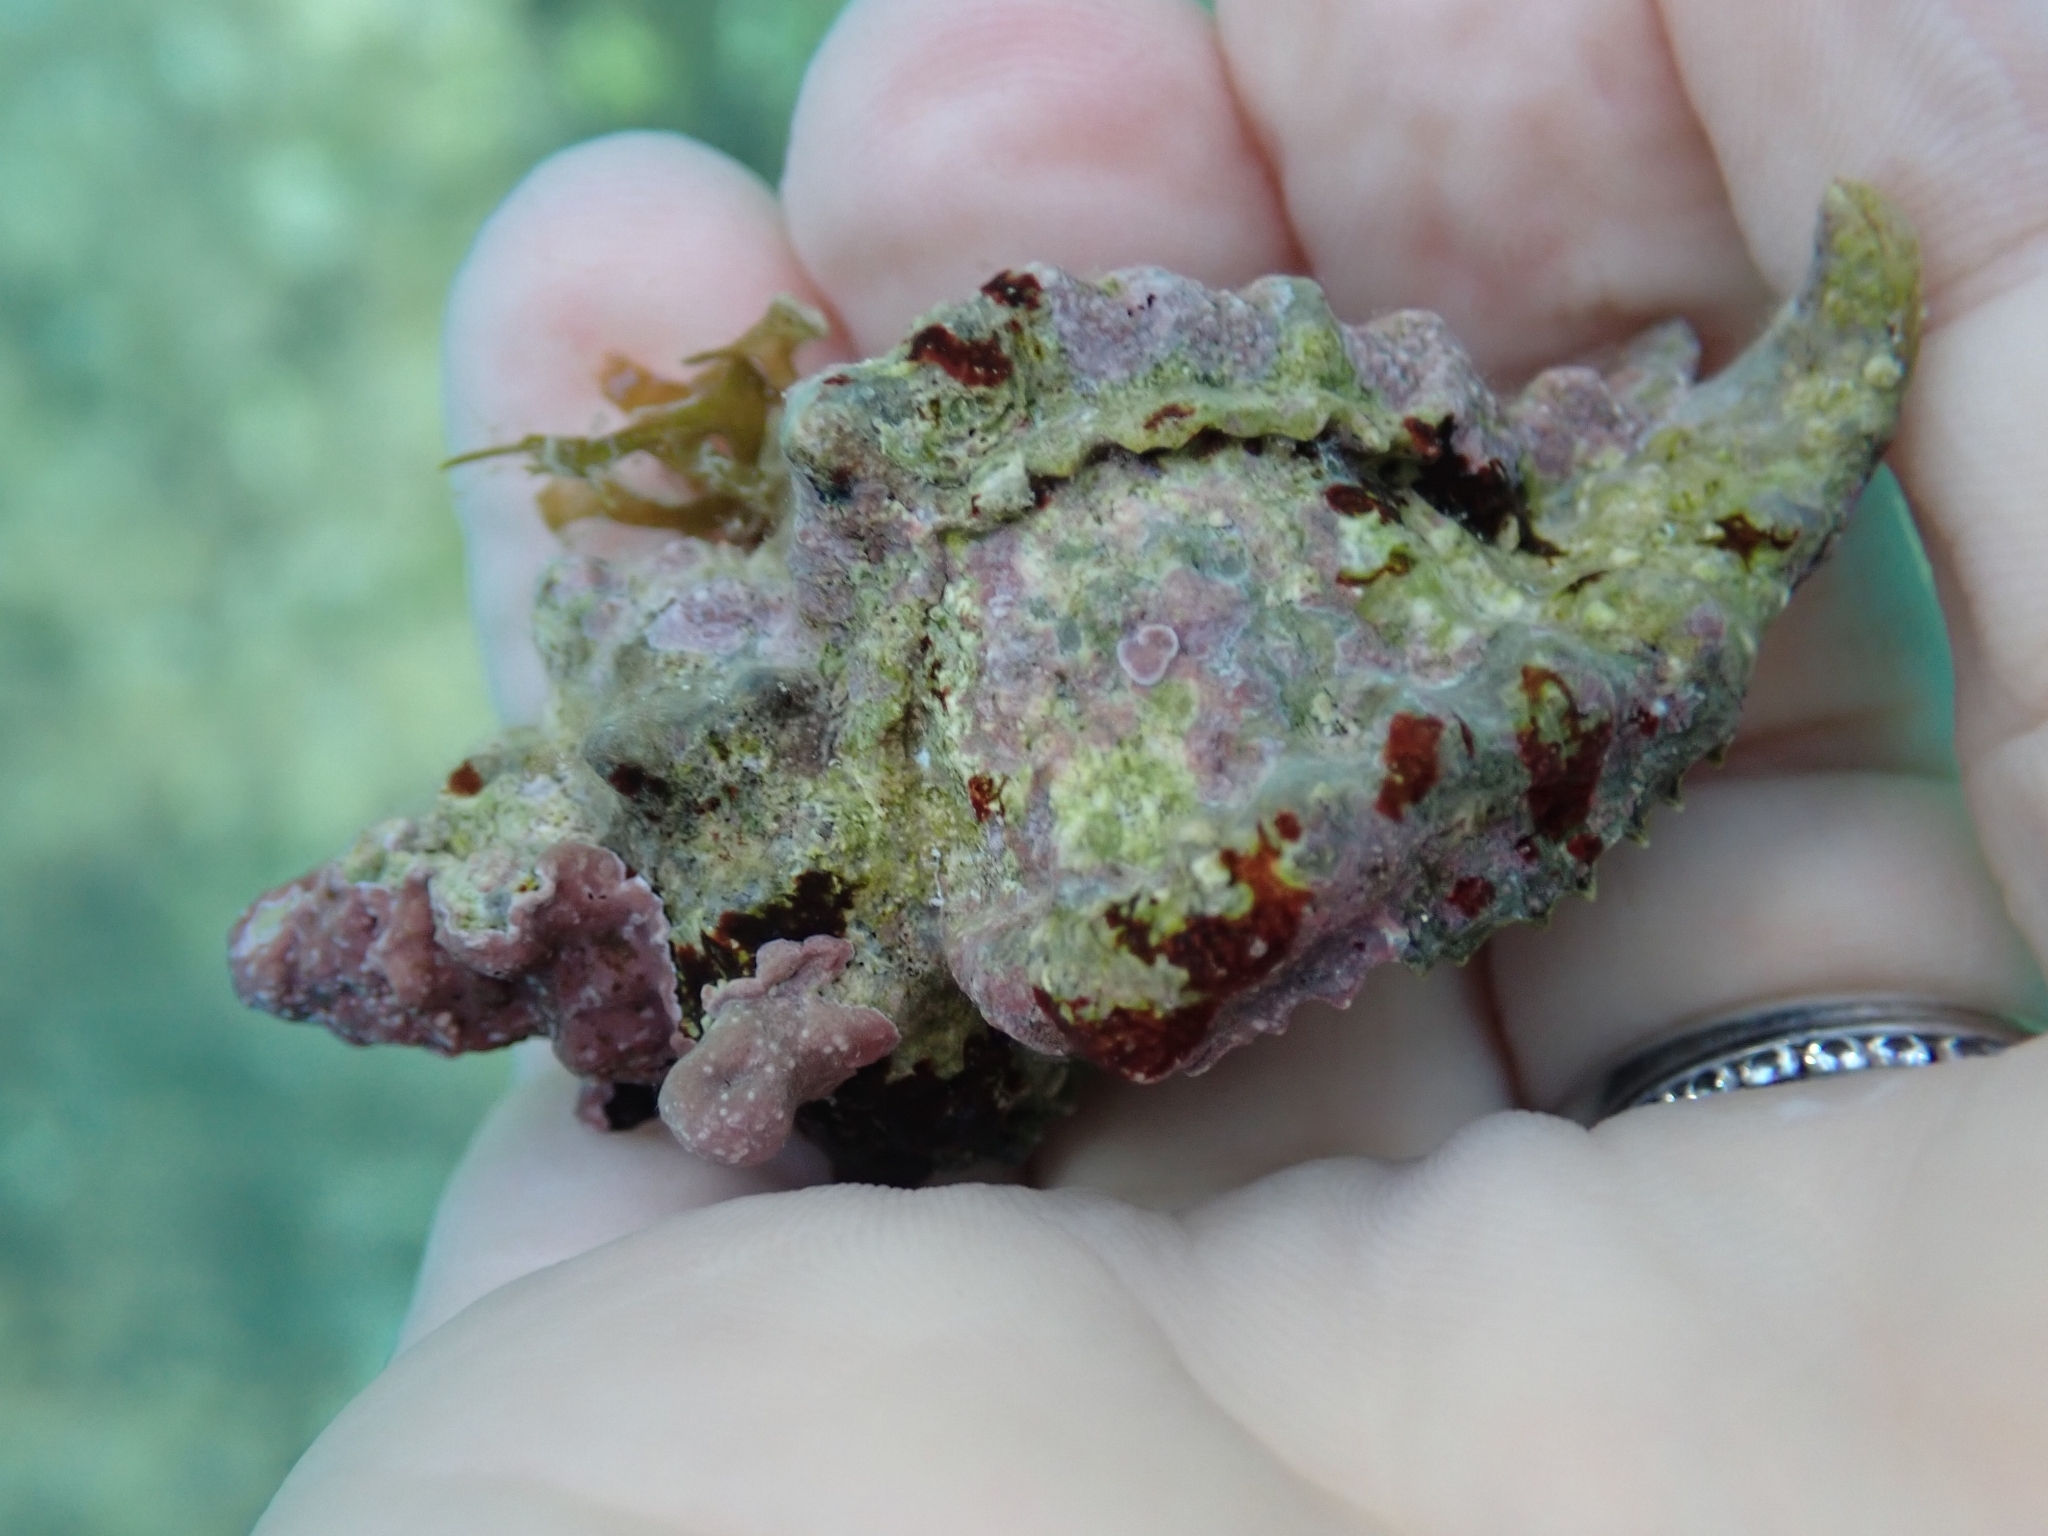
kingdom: Animalia
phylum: Mollusca
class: Gastropoda
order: Neogastropoda
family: Muricidae
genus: Hexaplex
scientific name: Hexaplex trunculus
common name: Banded dye-murex
